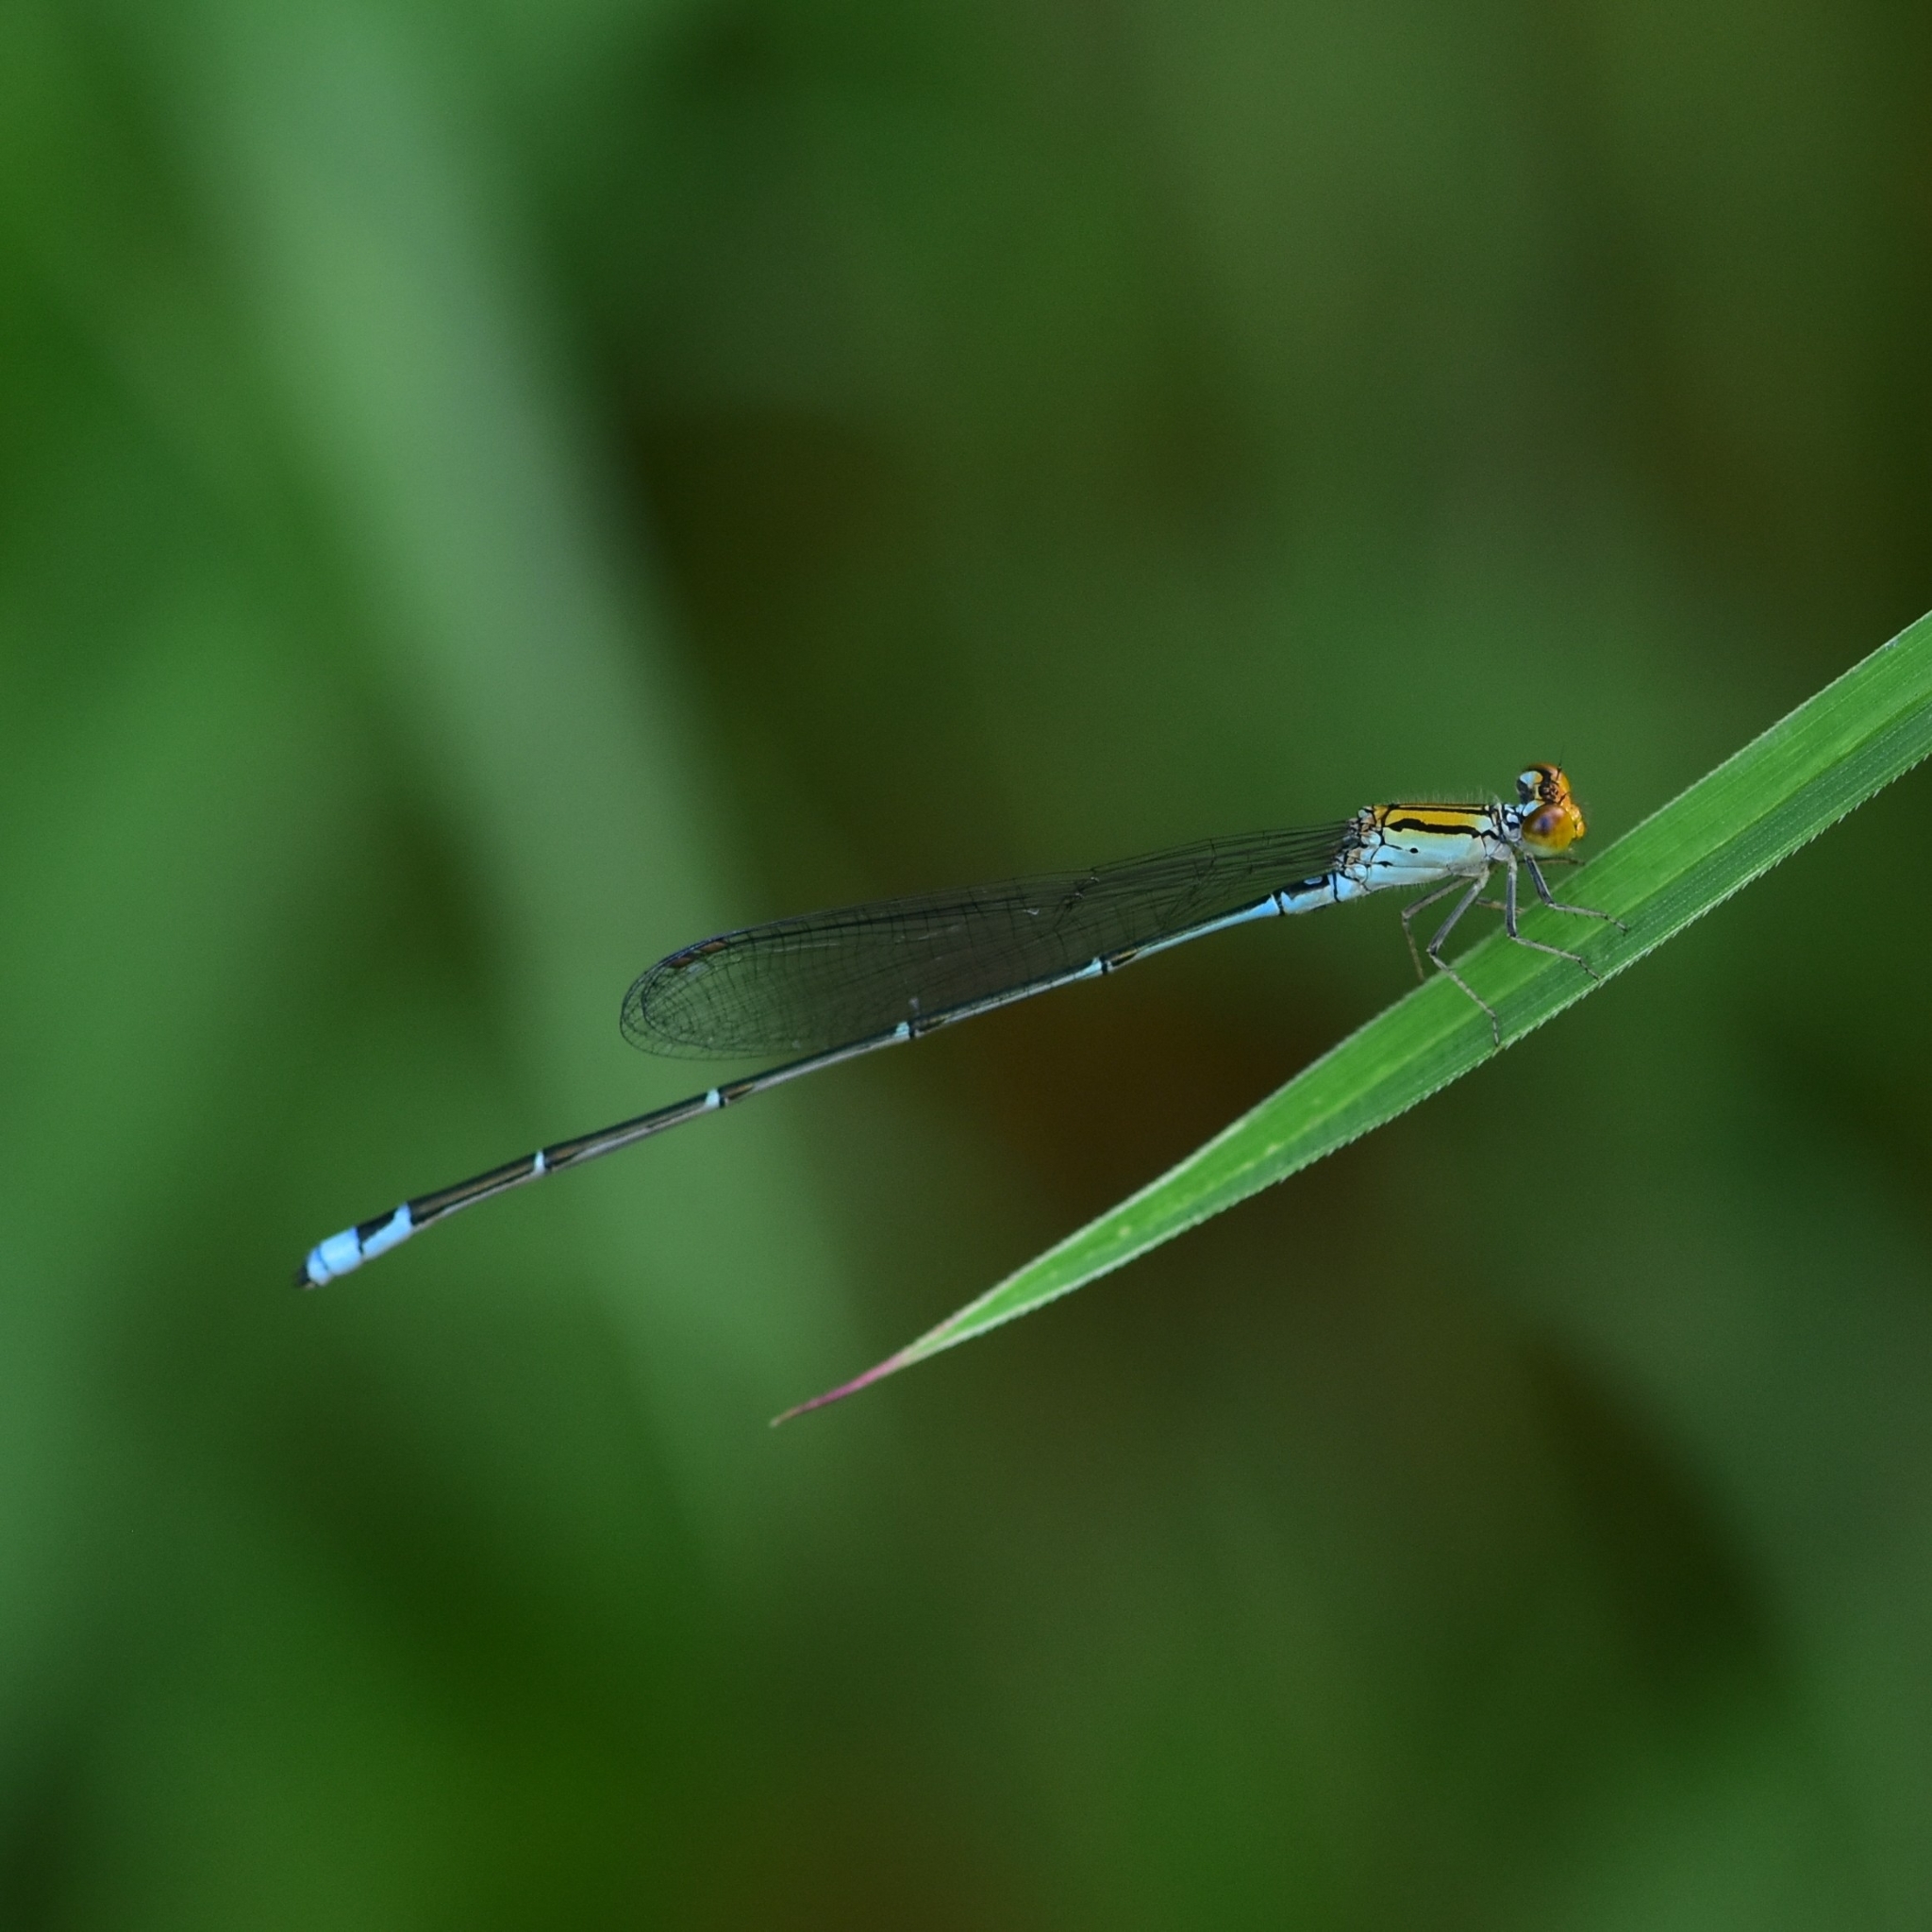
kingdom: Animalia
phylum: Arthropoda
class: Insecta
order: Odonata
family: Coenagrionidae
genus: Pseudagrion
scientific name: Pseudagrion rubriceps
